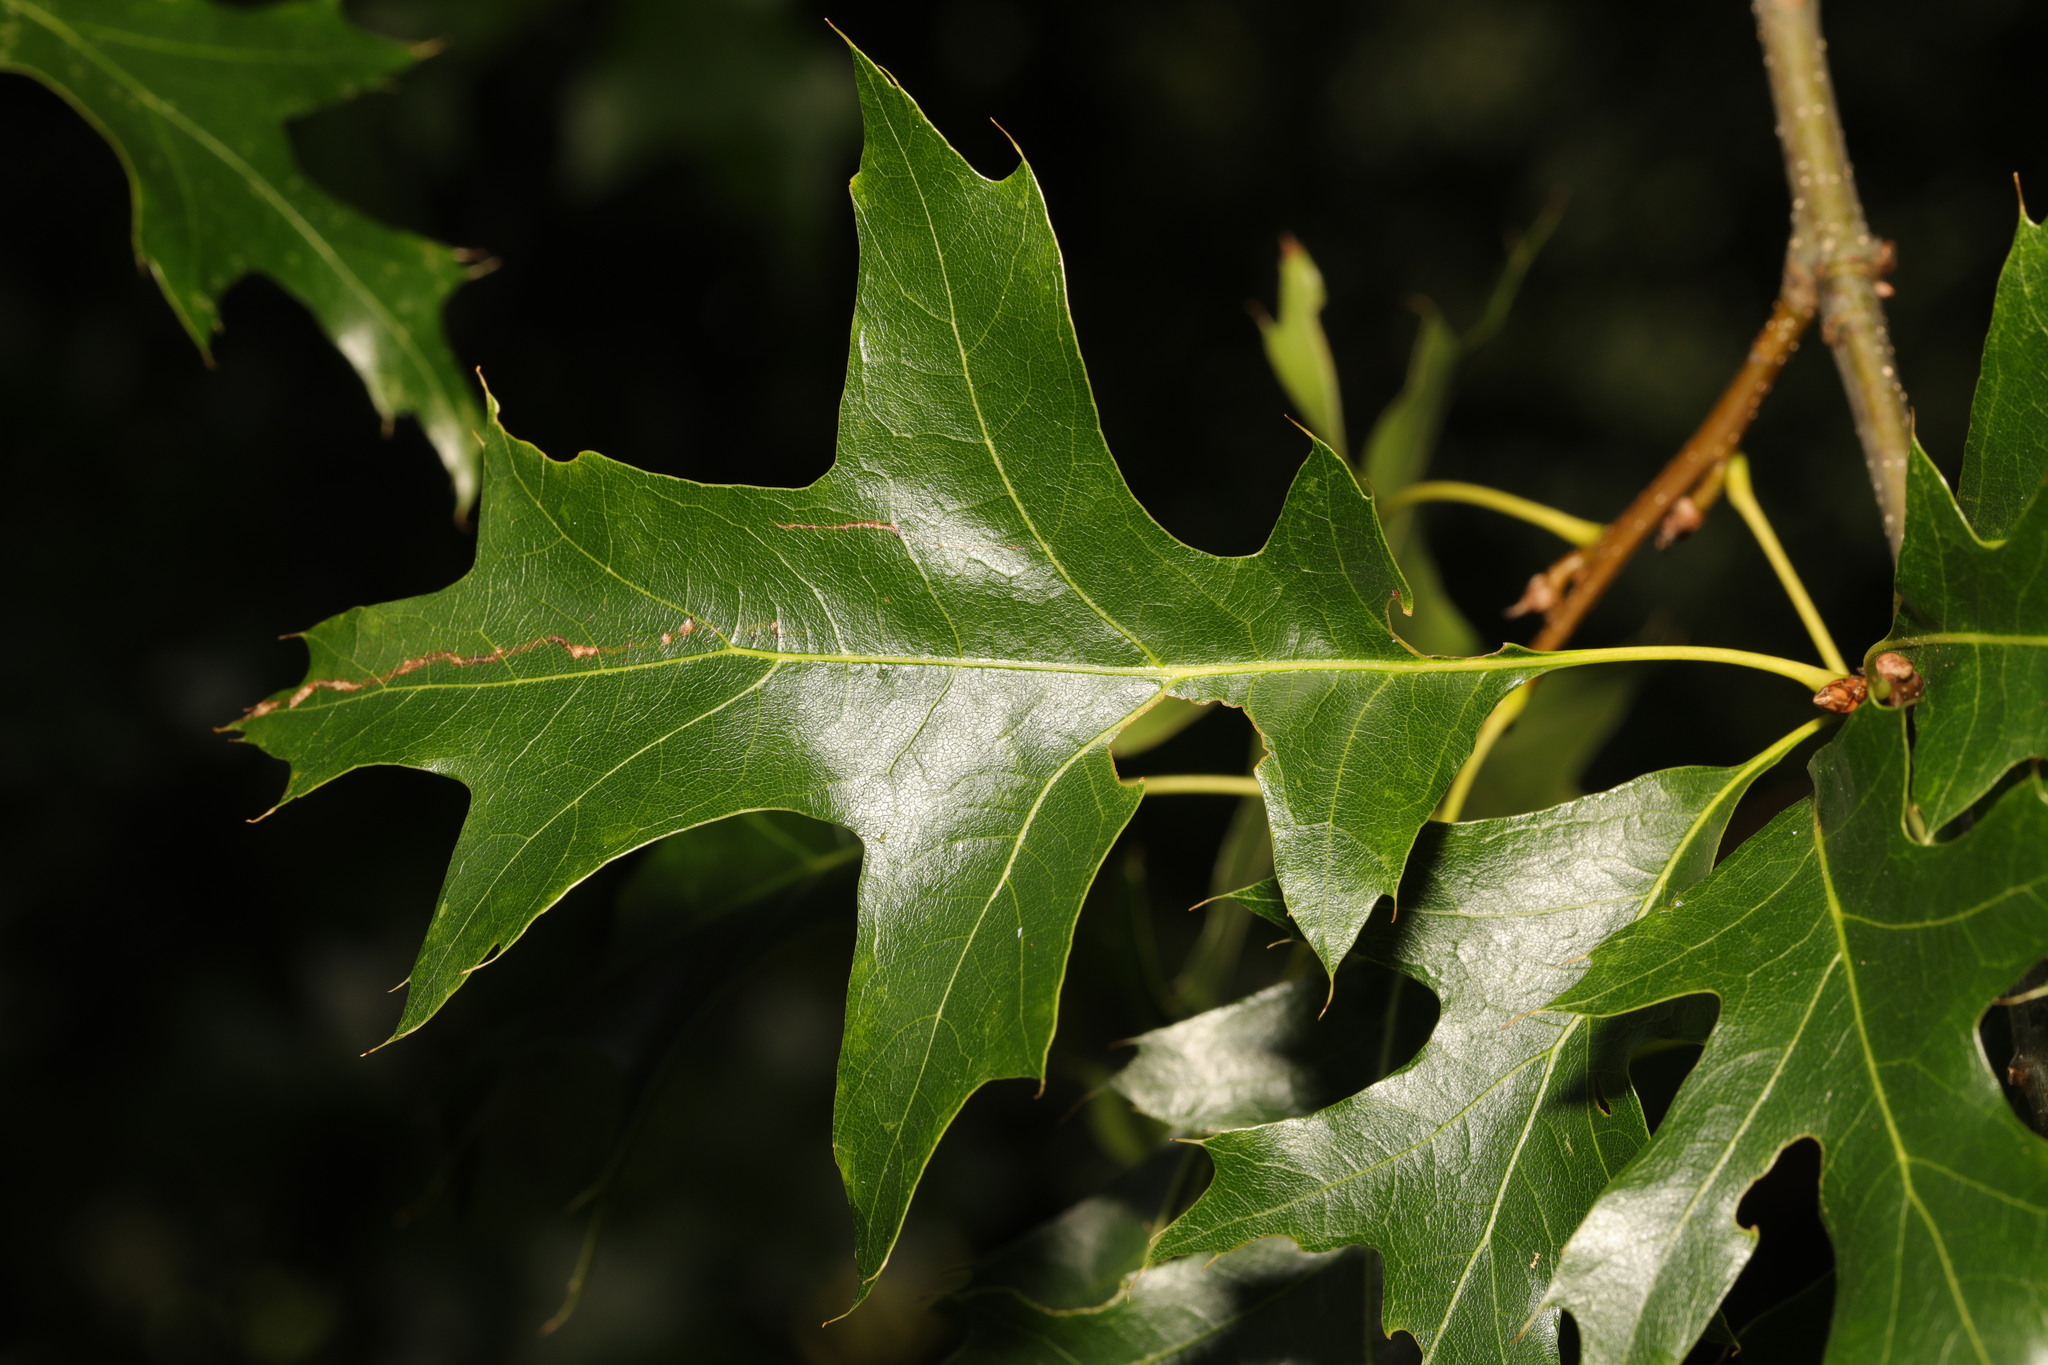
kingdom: Plantae
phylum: Tracheophyta
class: Magnoliopsida
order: Fagales
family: Fagaceae
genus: Quercus
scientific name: Quercus palustris
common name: Pin oak
